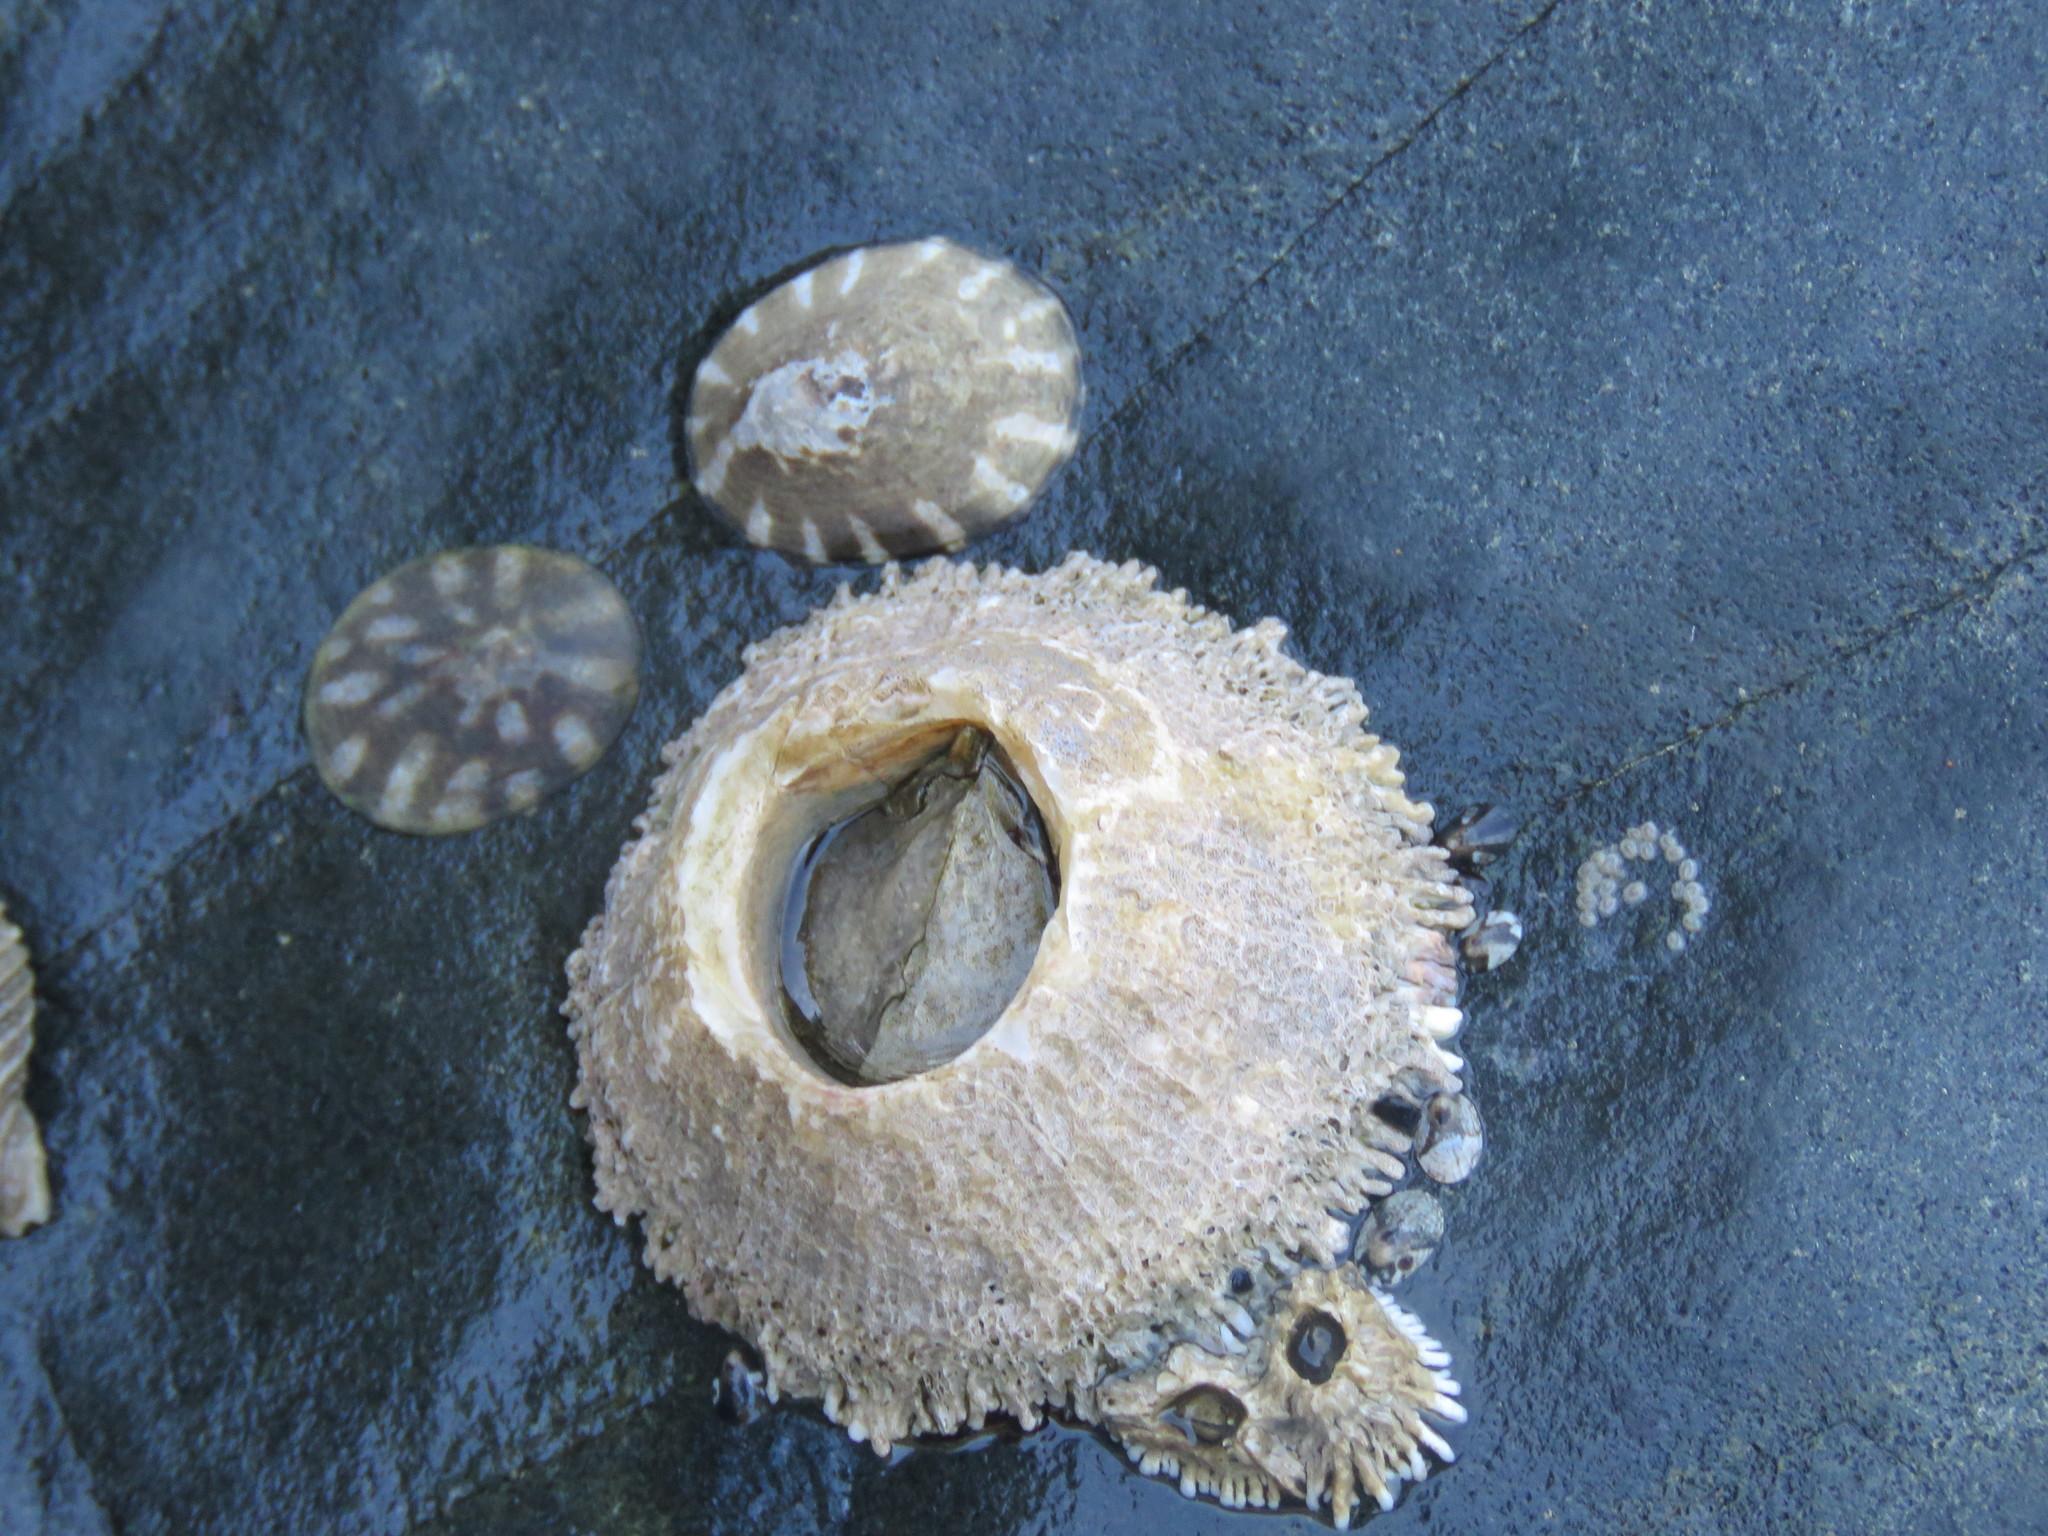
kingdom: Animalia
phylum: Arthropoda
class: Maxillopoda
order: Sessilia
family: Archaeobalanidae
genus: Semibalanus
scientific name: Semibalanus cariosus
